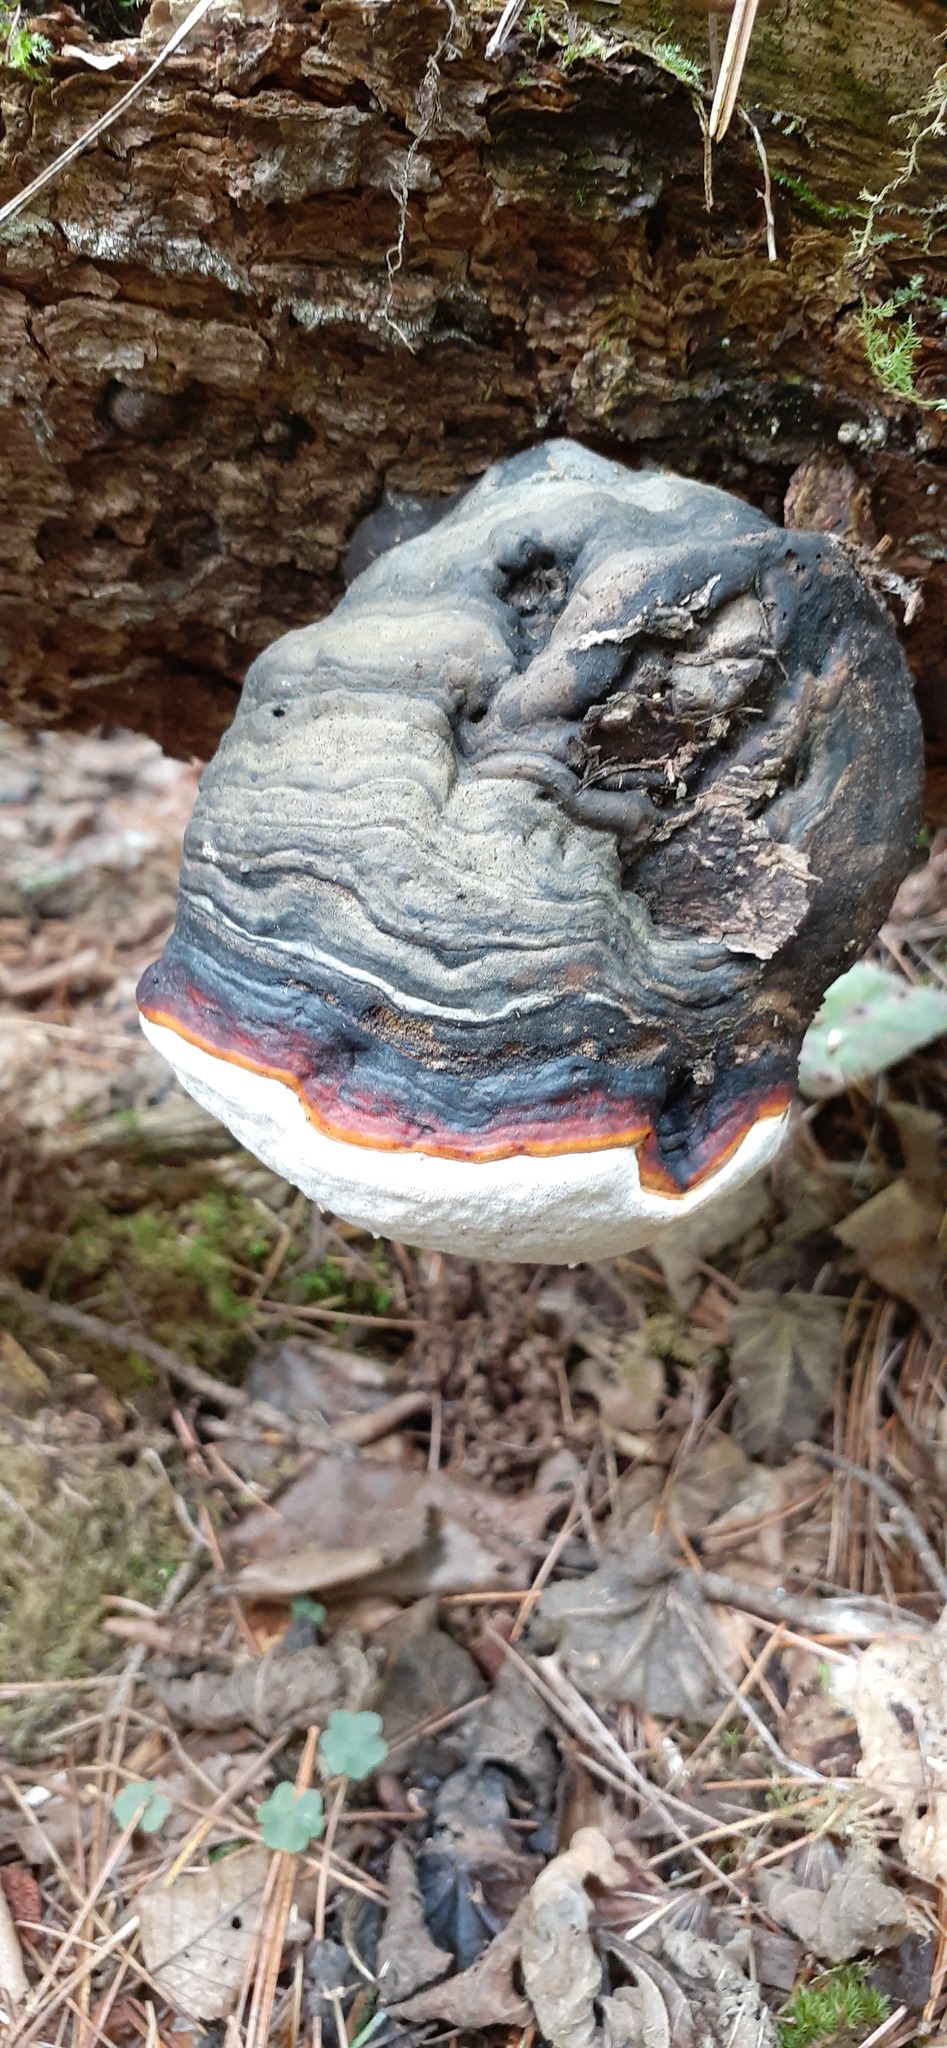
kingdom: Fungi
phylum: Basidiomycota
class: Agaricomycetes
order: Polyporales
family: Fomitopsidaceae
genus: Fomitopsis
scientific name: Fomitopsis pinicola
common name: Red-belted bracket
